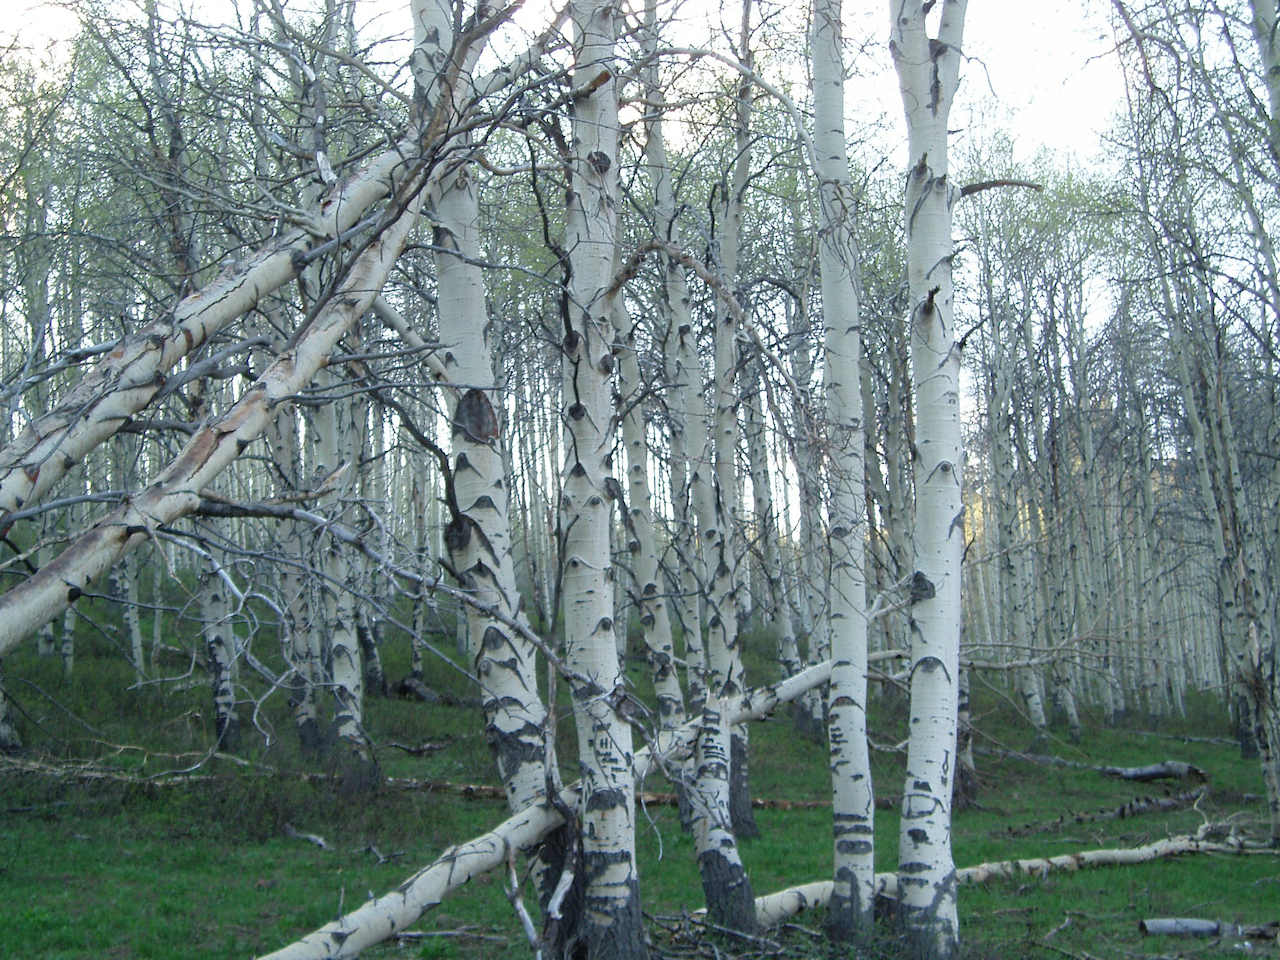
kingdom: Plantae
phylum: Tracheophyta
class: Magnoliopsida
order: Malpighiales
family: Salicaceae
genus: Populus
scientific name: Populus tremuloides
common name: Quaking aspen
